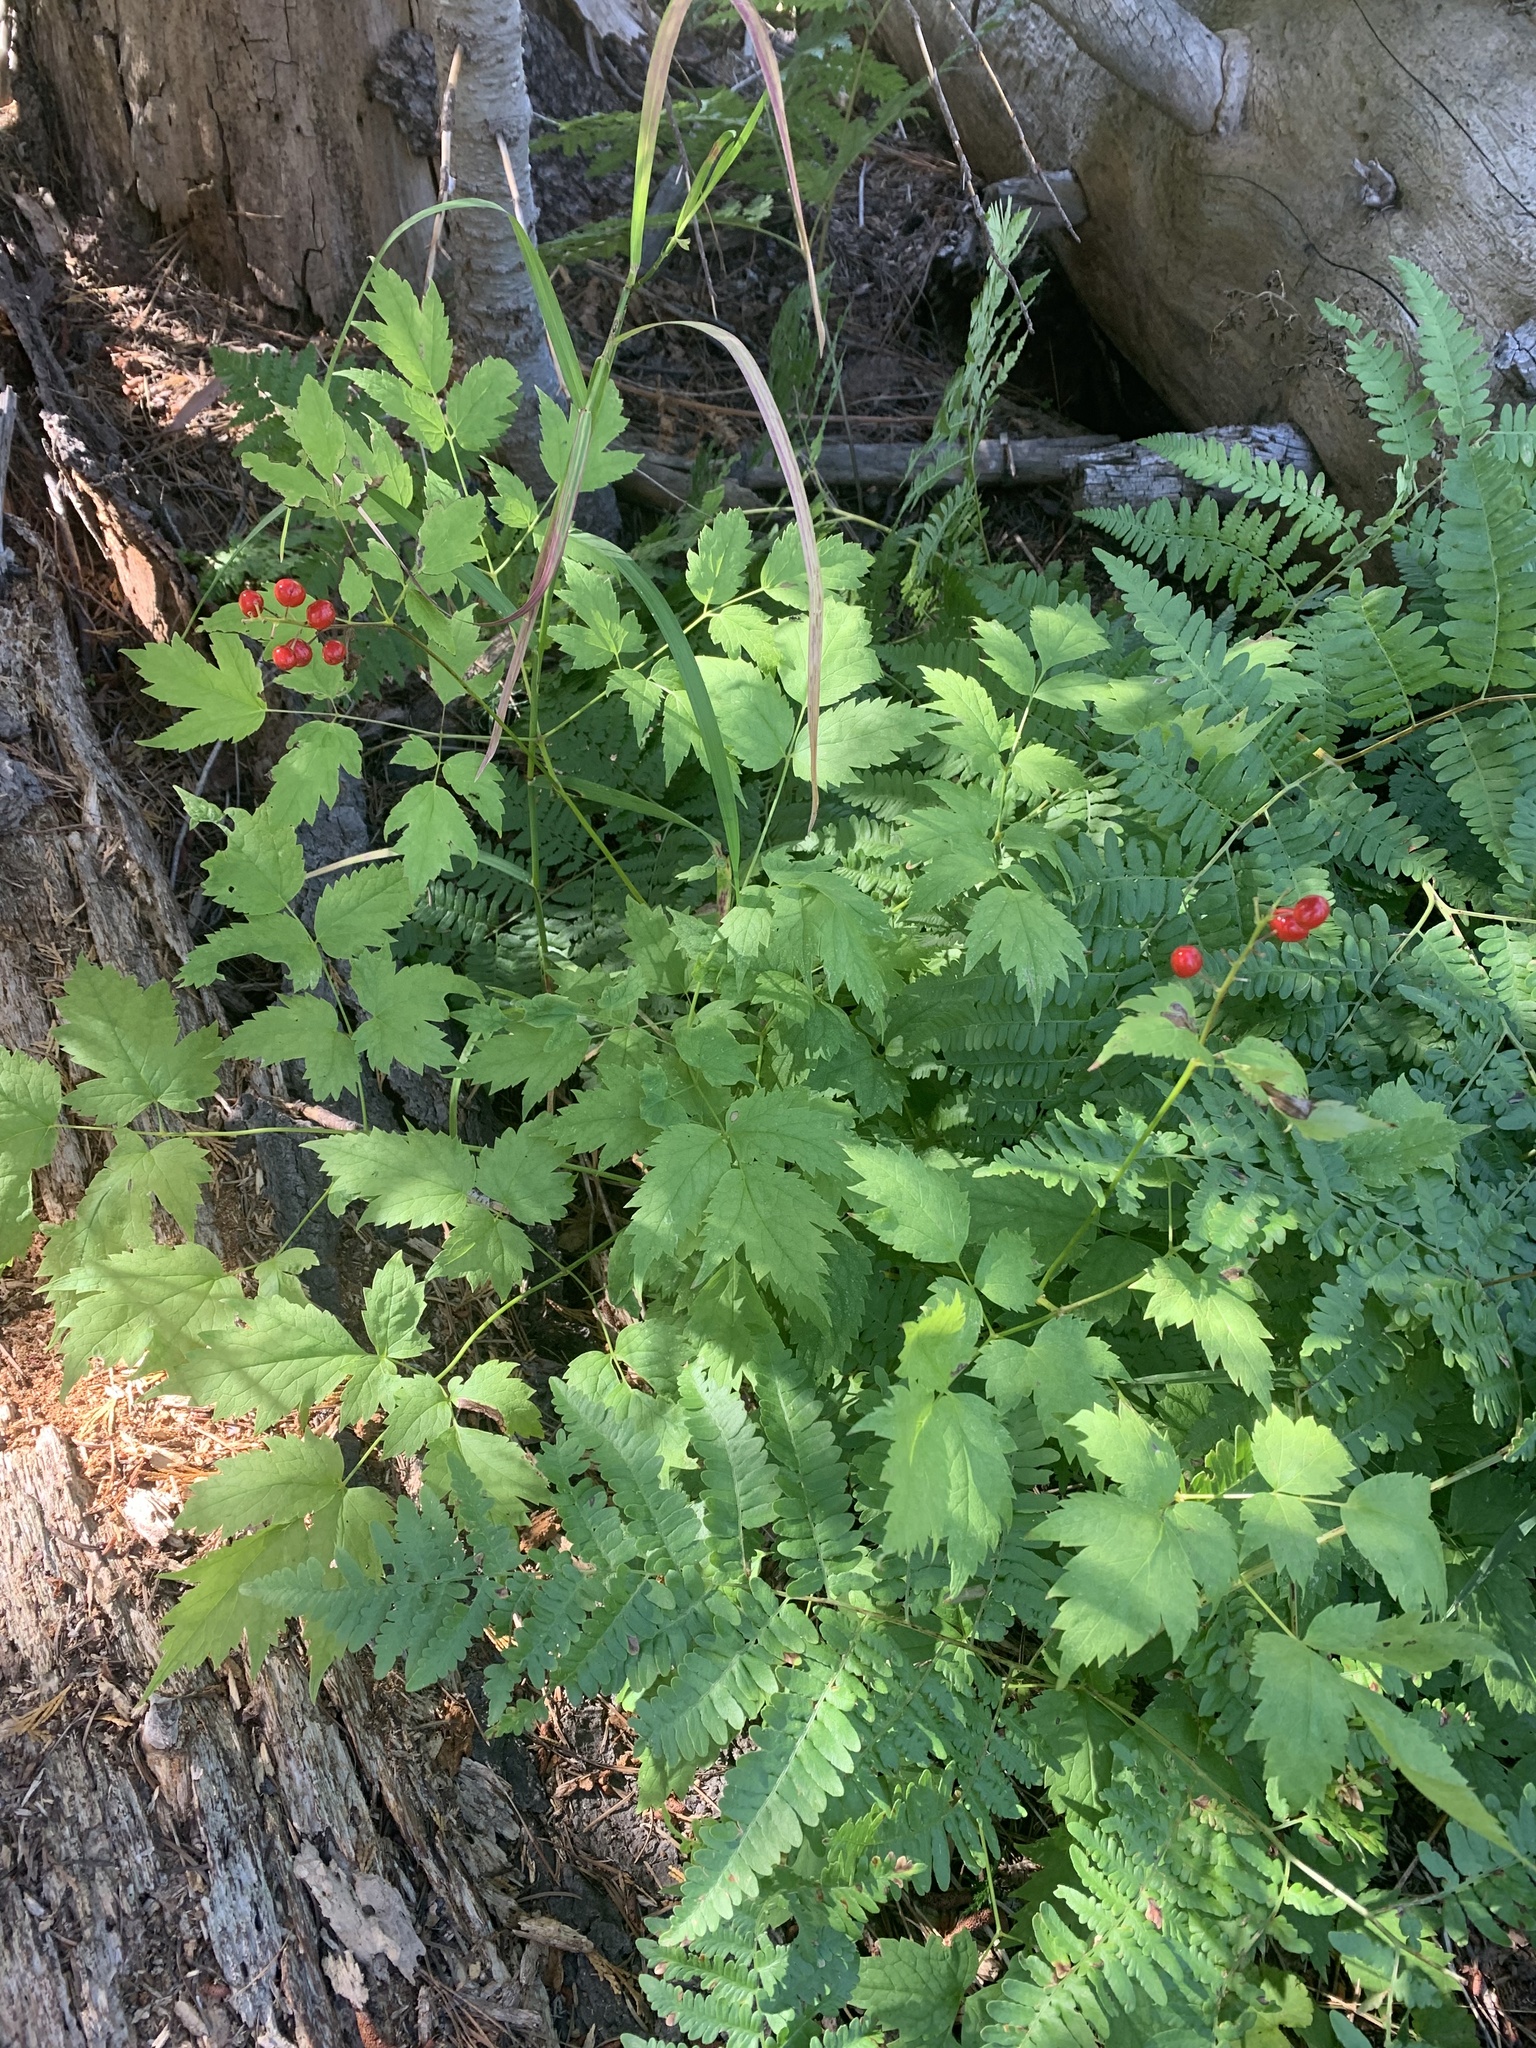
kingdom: Plantae
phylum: Tracheophyta
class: Magnoliopsida
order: Ranunculales
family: Ranunculaceae
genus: Actaea
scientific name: Actaea rubra
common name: Red baneberry
